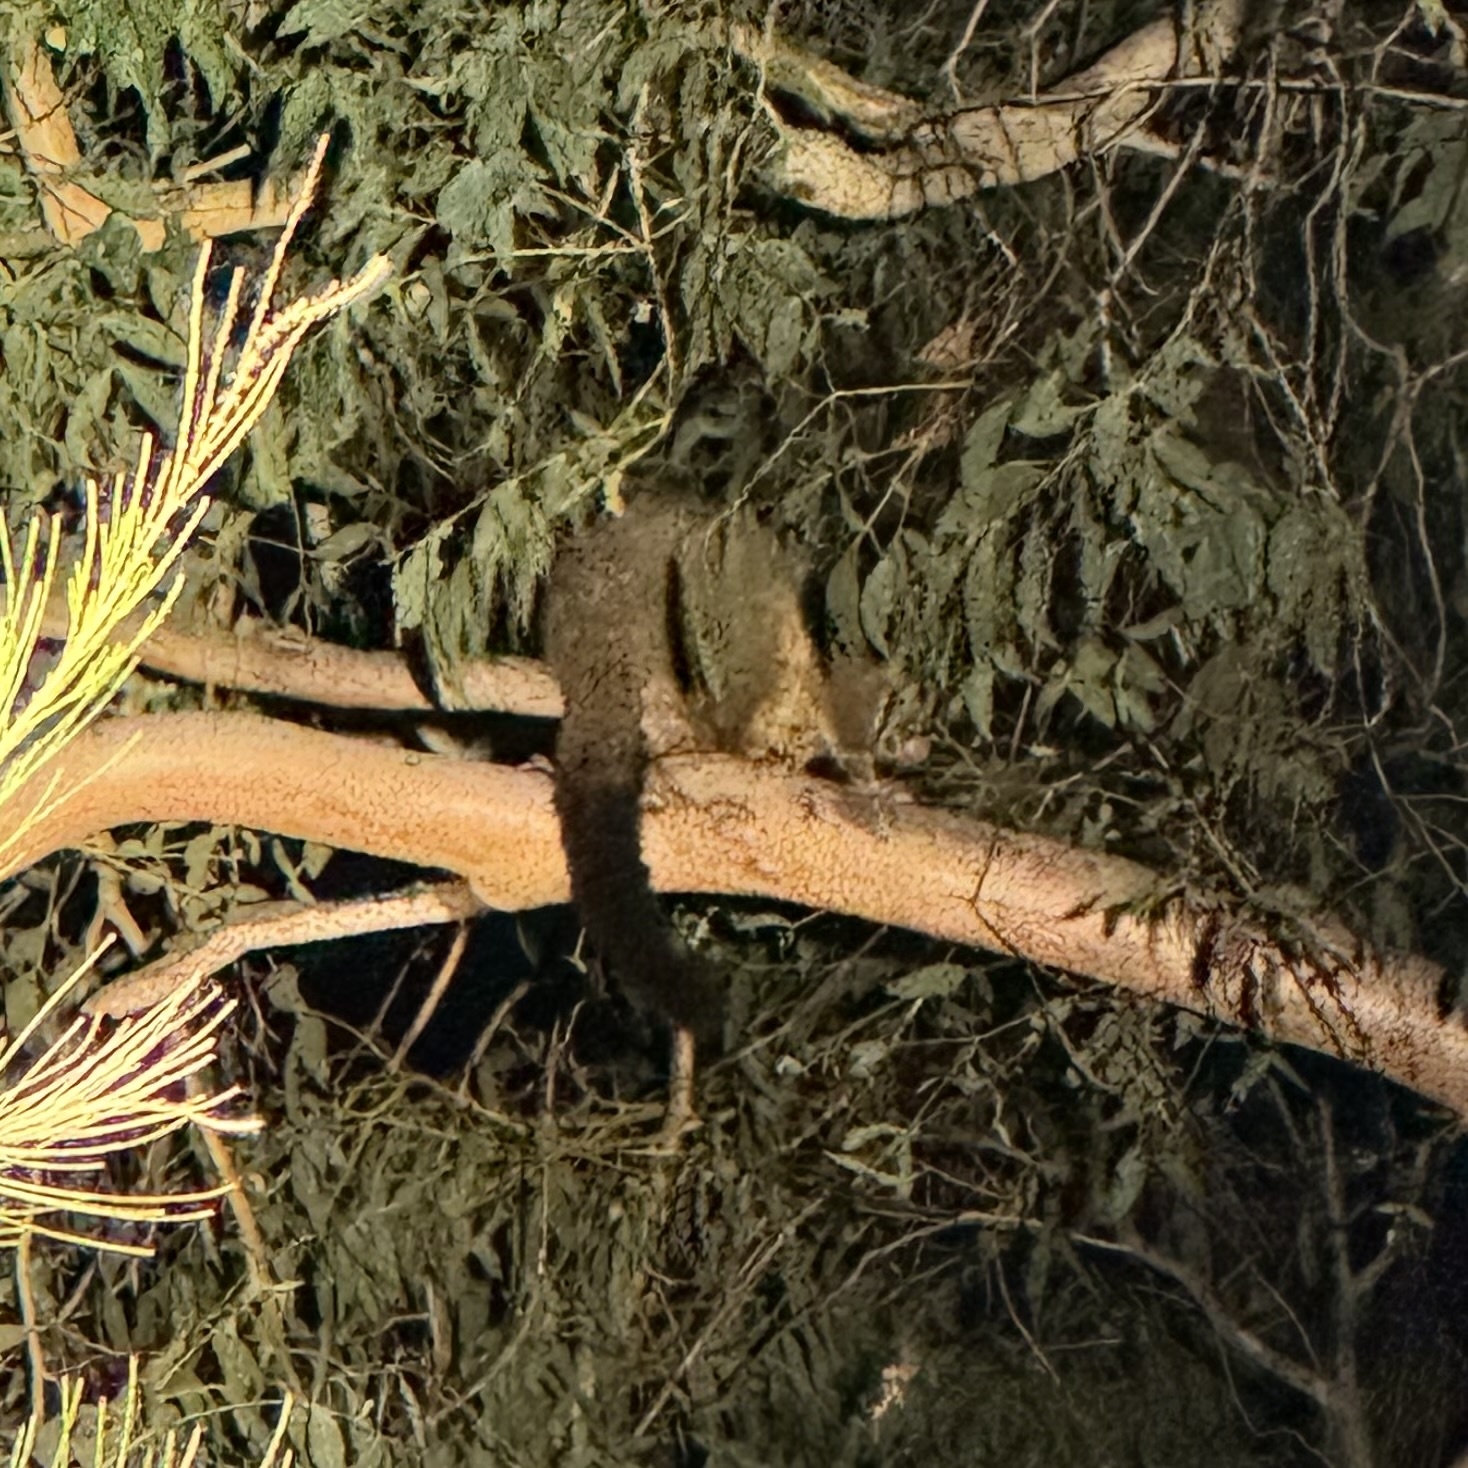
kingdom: Animalia
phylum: Chordata
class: Mammalia
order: Diprotodontia
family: Phalangeridae
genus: Trichosurus
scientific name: Trichosurus vulpecula
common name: Common brushtail
